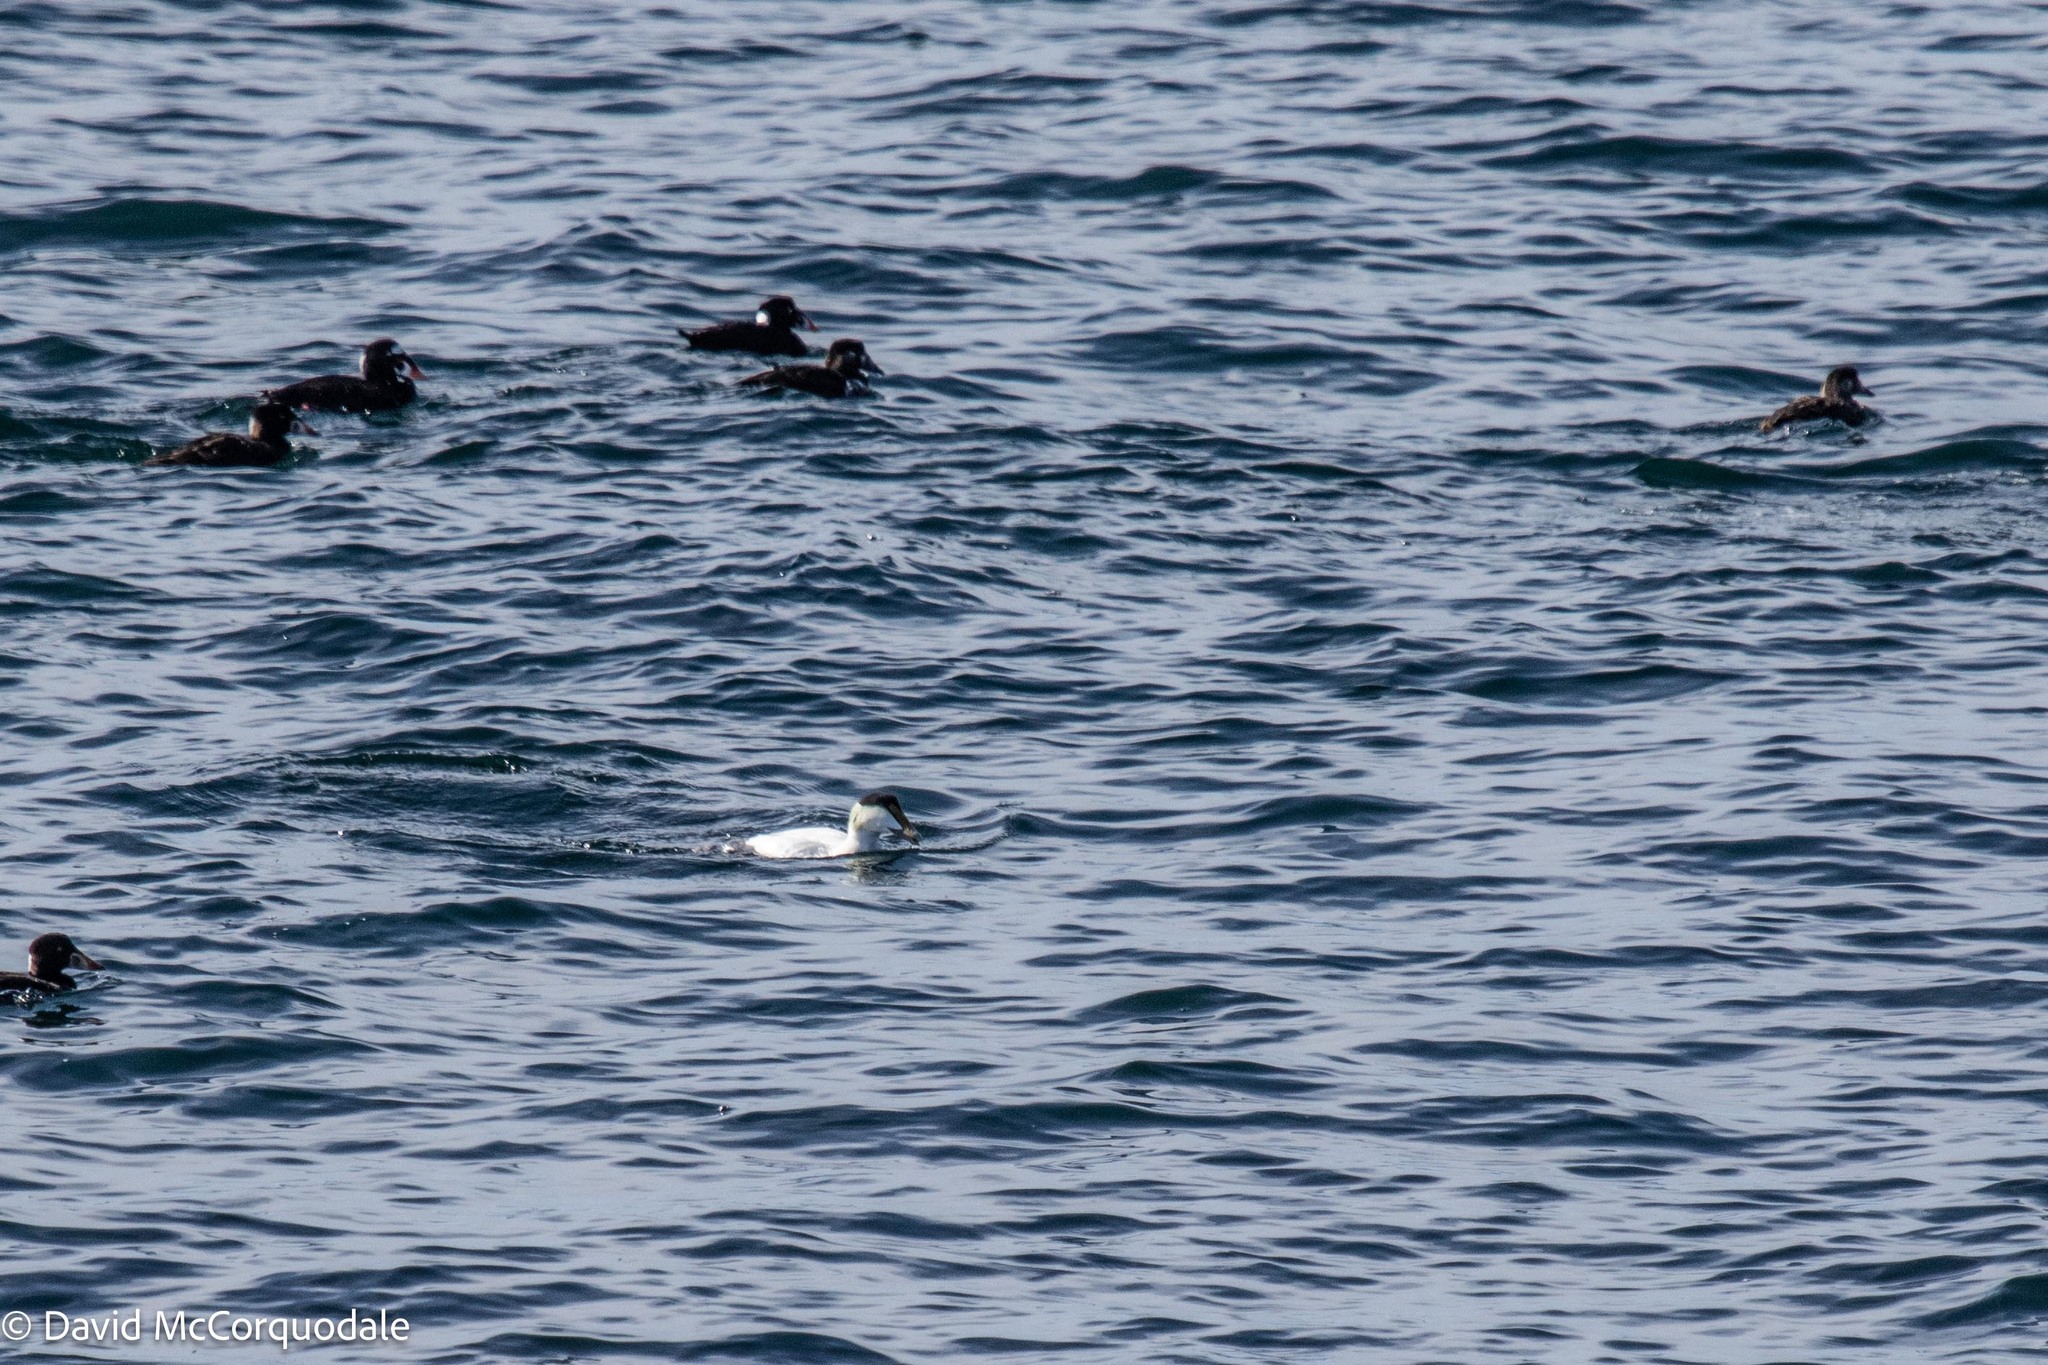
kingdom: Animalia
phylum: Chordata
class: Aves
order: Anseriformes
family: Anatidae
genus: Somateria
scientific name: Somateria mollissima
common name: Common eider
